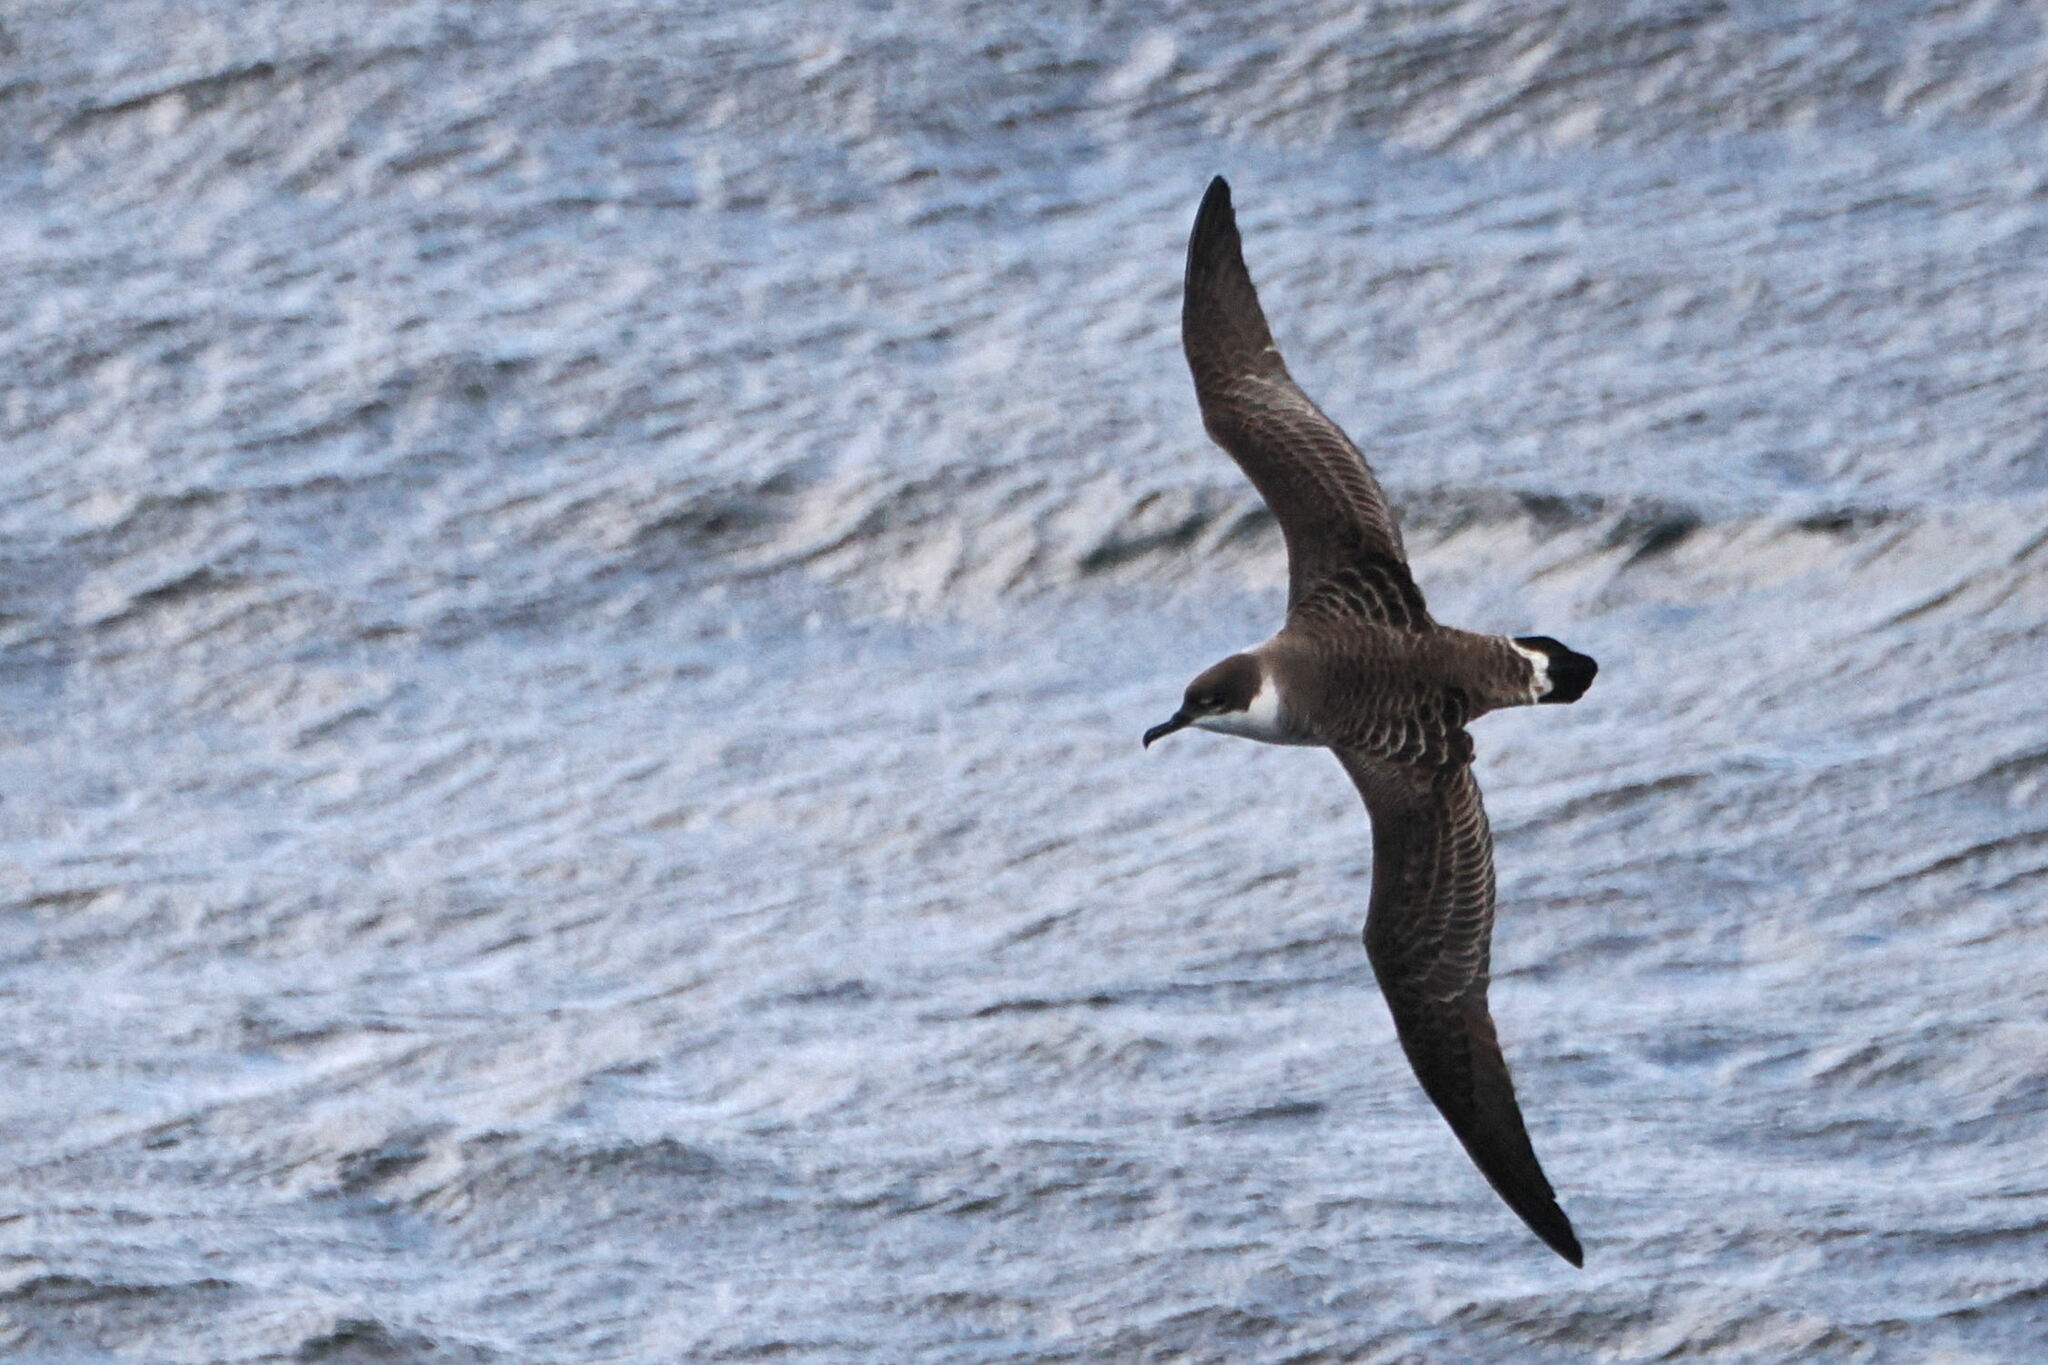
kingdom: Animalia
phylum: Chordata
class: Aves
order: Procellariiformes
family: Procellariidae
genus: Puffinus
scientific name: Puffinus gravis
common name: Great shearwater
